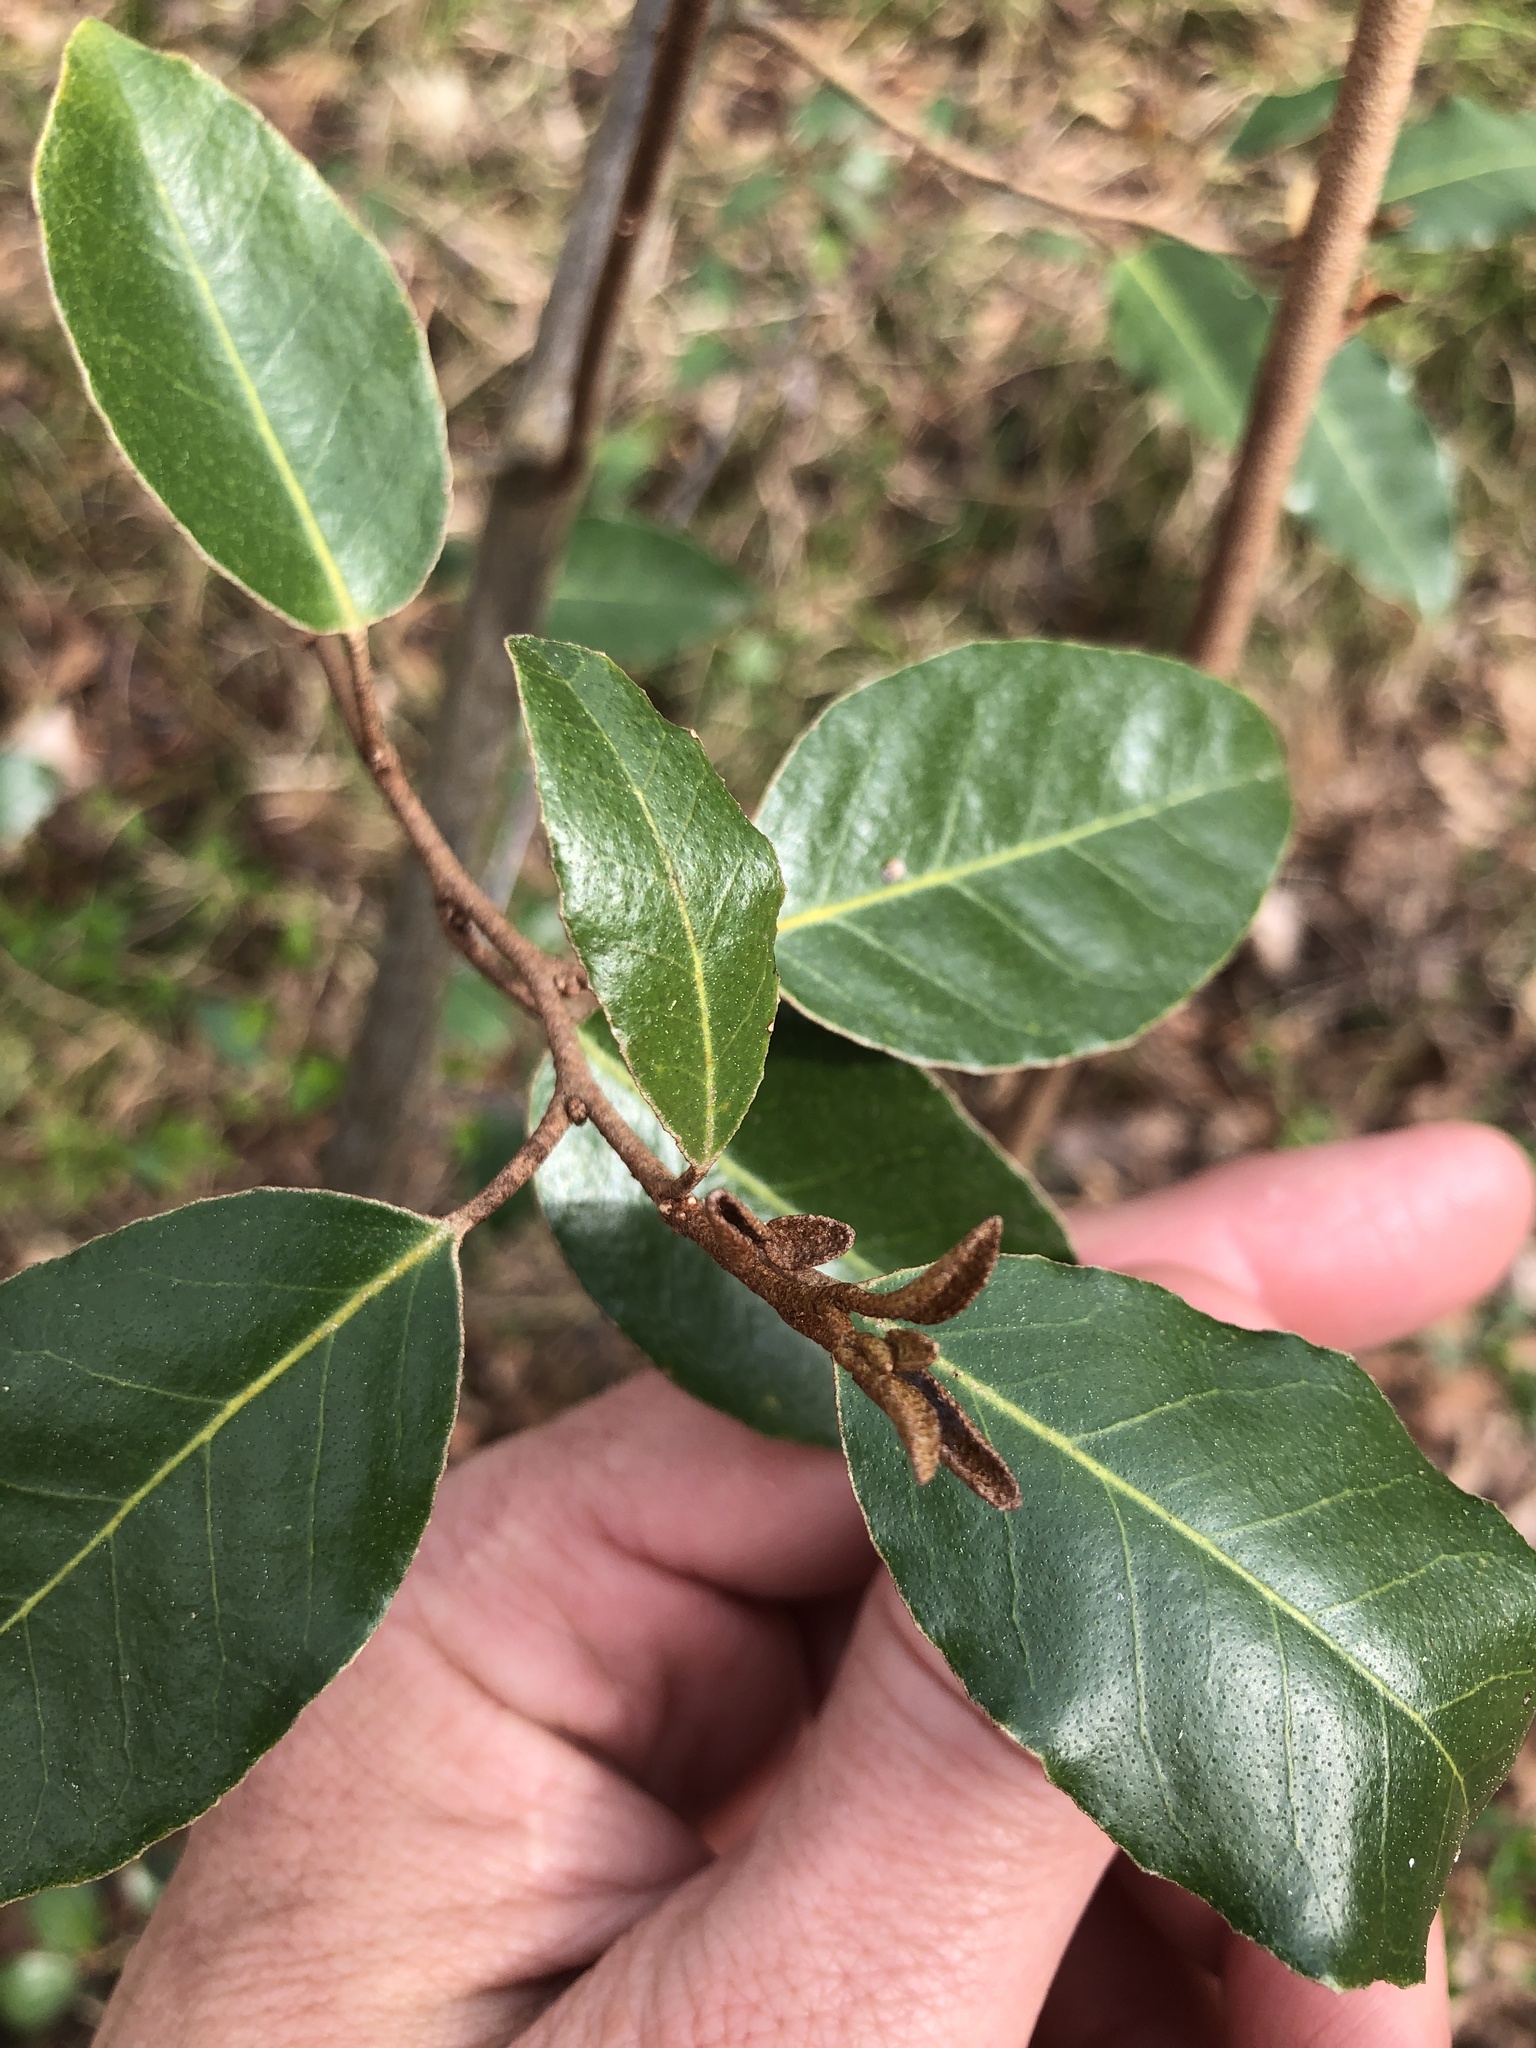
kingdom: Plantae
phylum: Tracheophyta
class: Magnoliopsida
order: Rosales
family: Elaeagnaceae
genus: Elaeagnus
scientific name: Elaeagnus pungens
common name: Spiny oleaster
